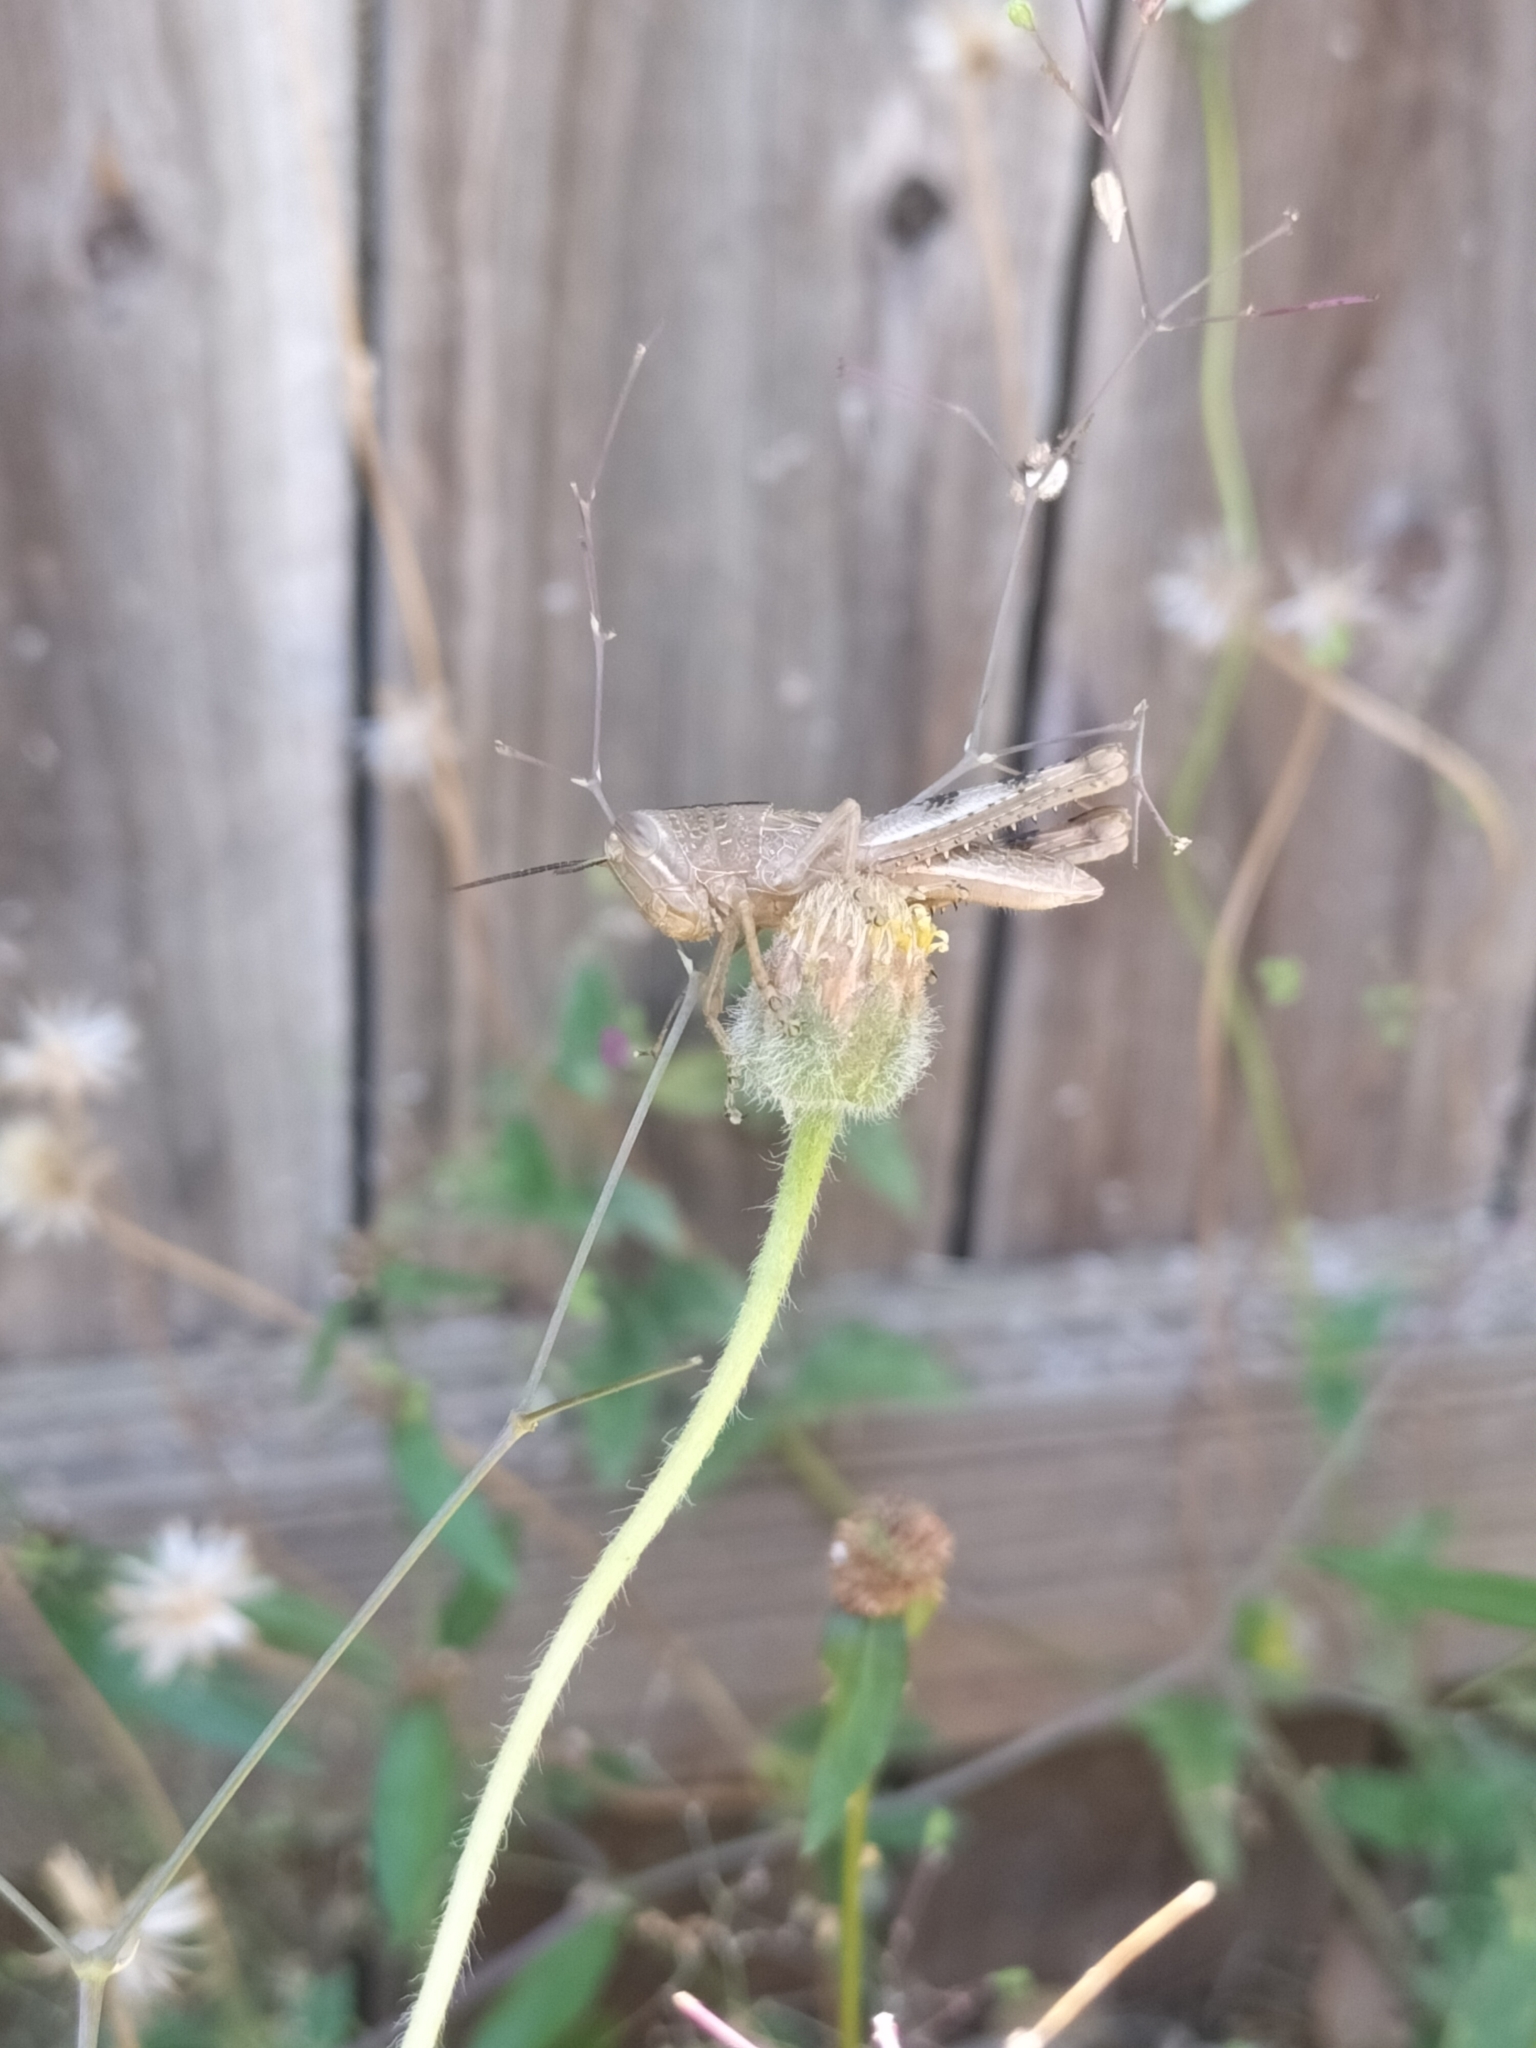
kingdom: Animalia
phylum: Arthropoda
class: Insecta
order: Orthoptera
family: Acrididae
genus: Valanga
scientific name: Valanga irregularis
